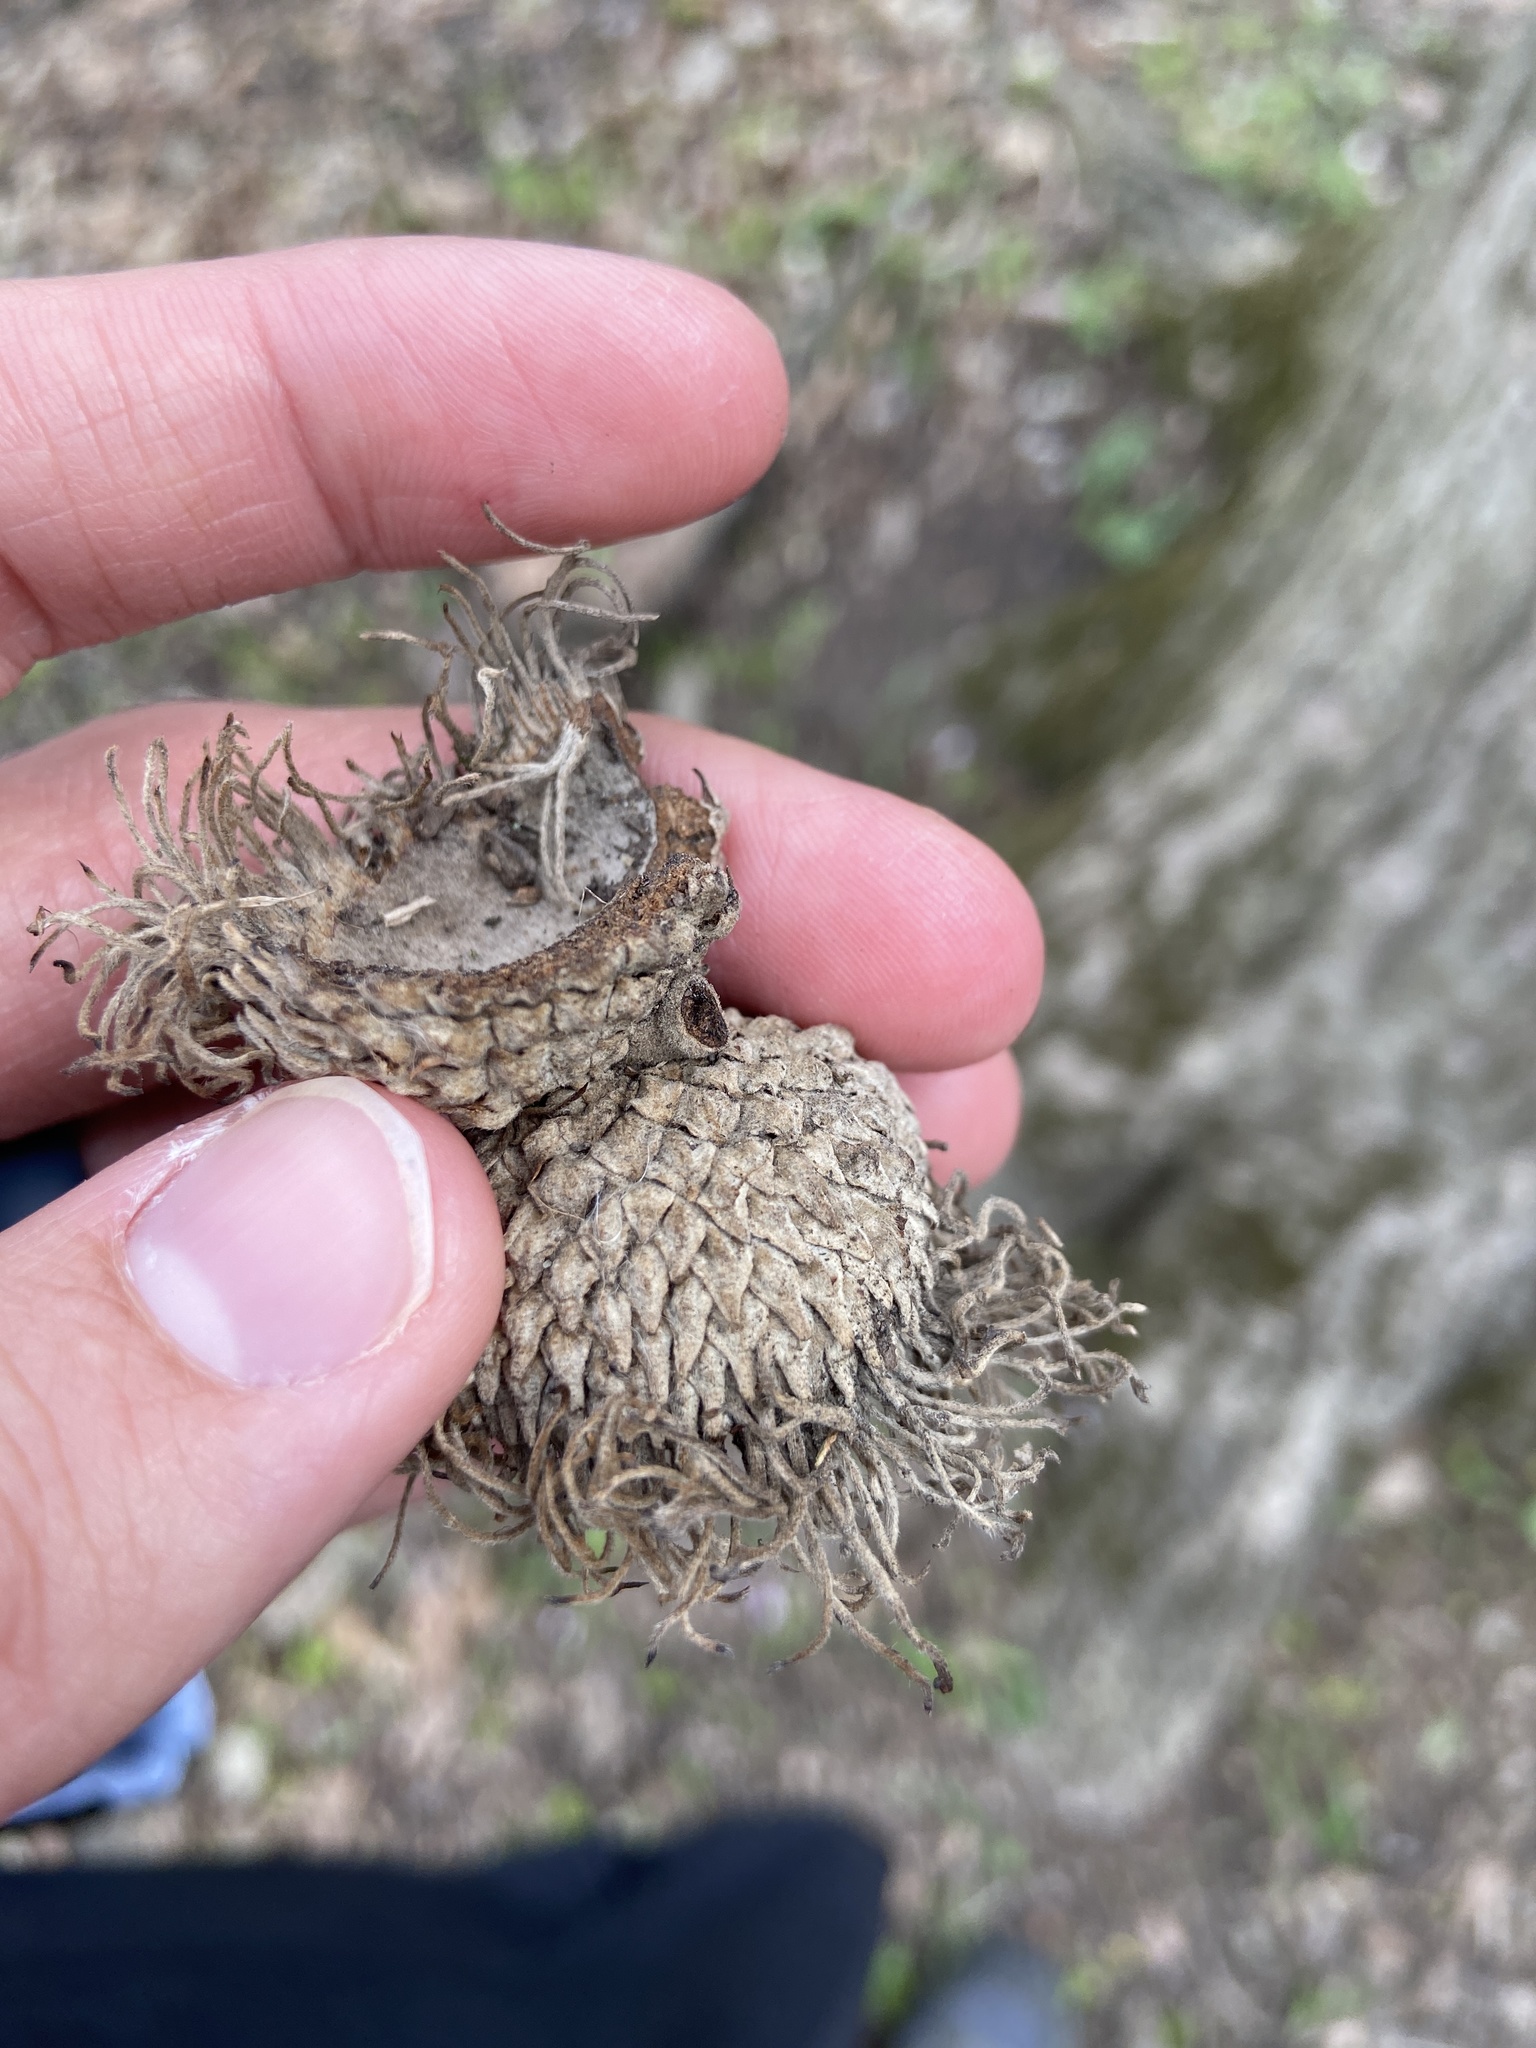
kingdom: Plantae
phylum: Tracheophyta
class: Magnoliopsida
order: Fagales
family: Fagaceae
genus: Quercus
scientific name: Quercus macrocarpa
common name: Bur oak
